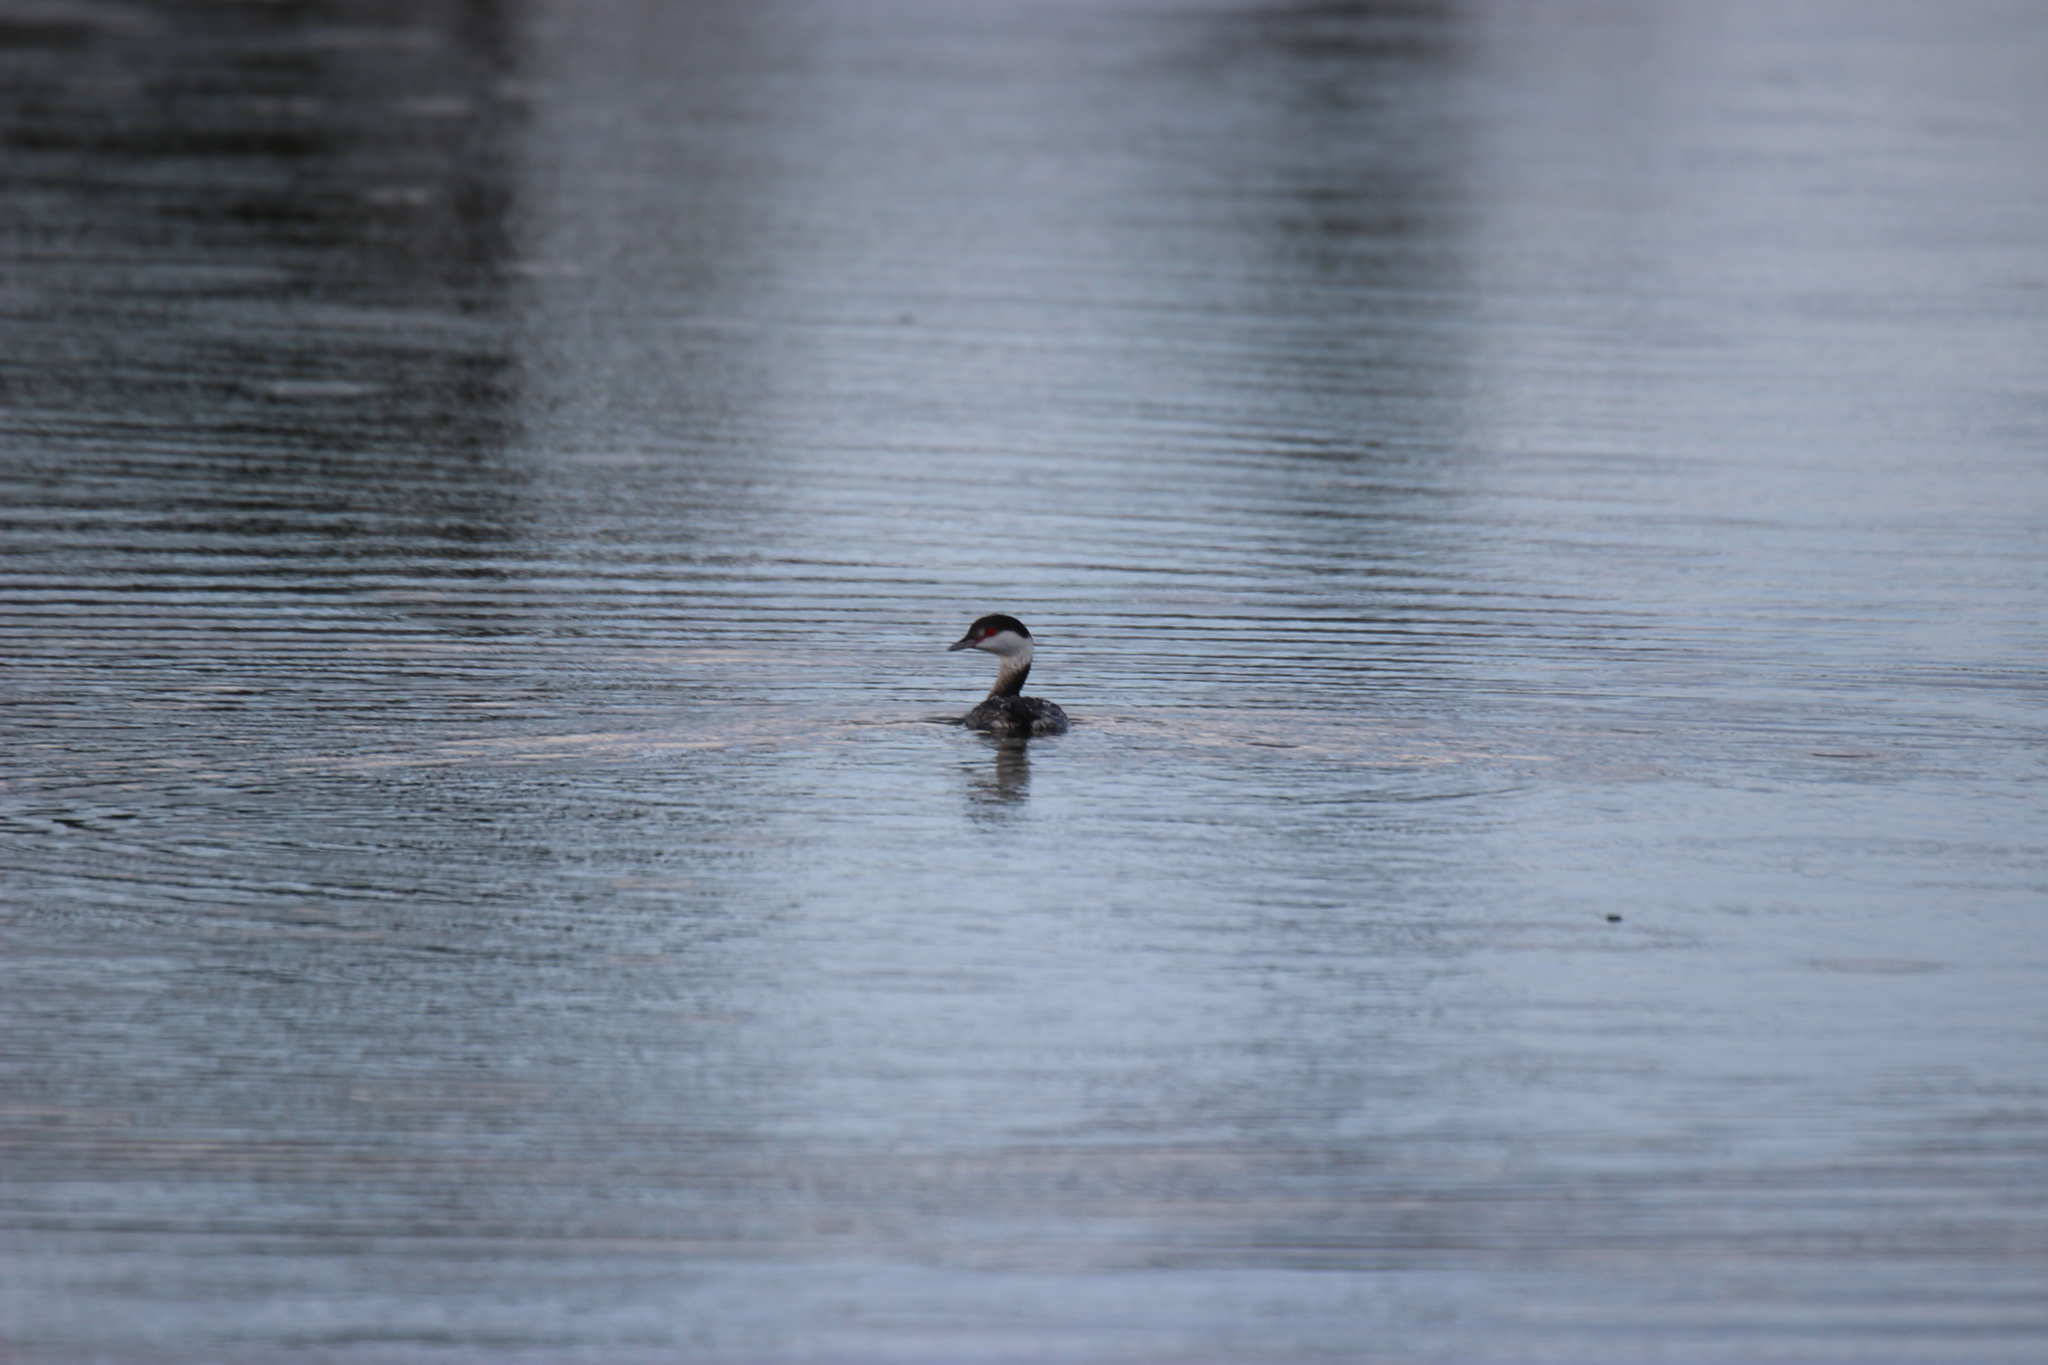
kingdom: Animalia
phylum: Chordata
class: Aves
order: Podicipediformes
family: Podicipedidae
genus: Podiceps
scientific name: Podiceps auritus
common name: Horned grebe
